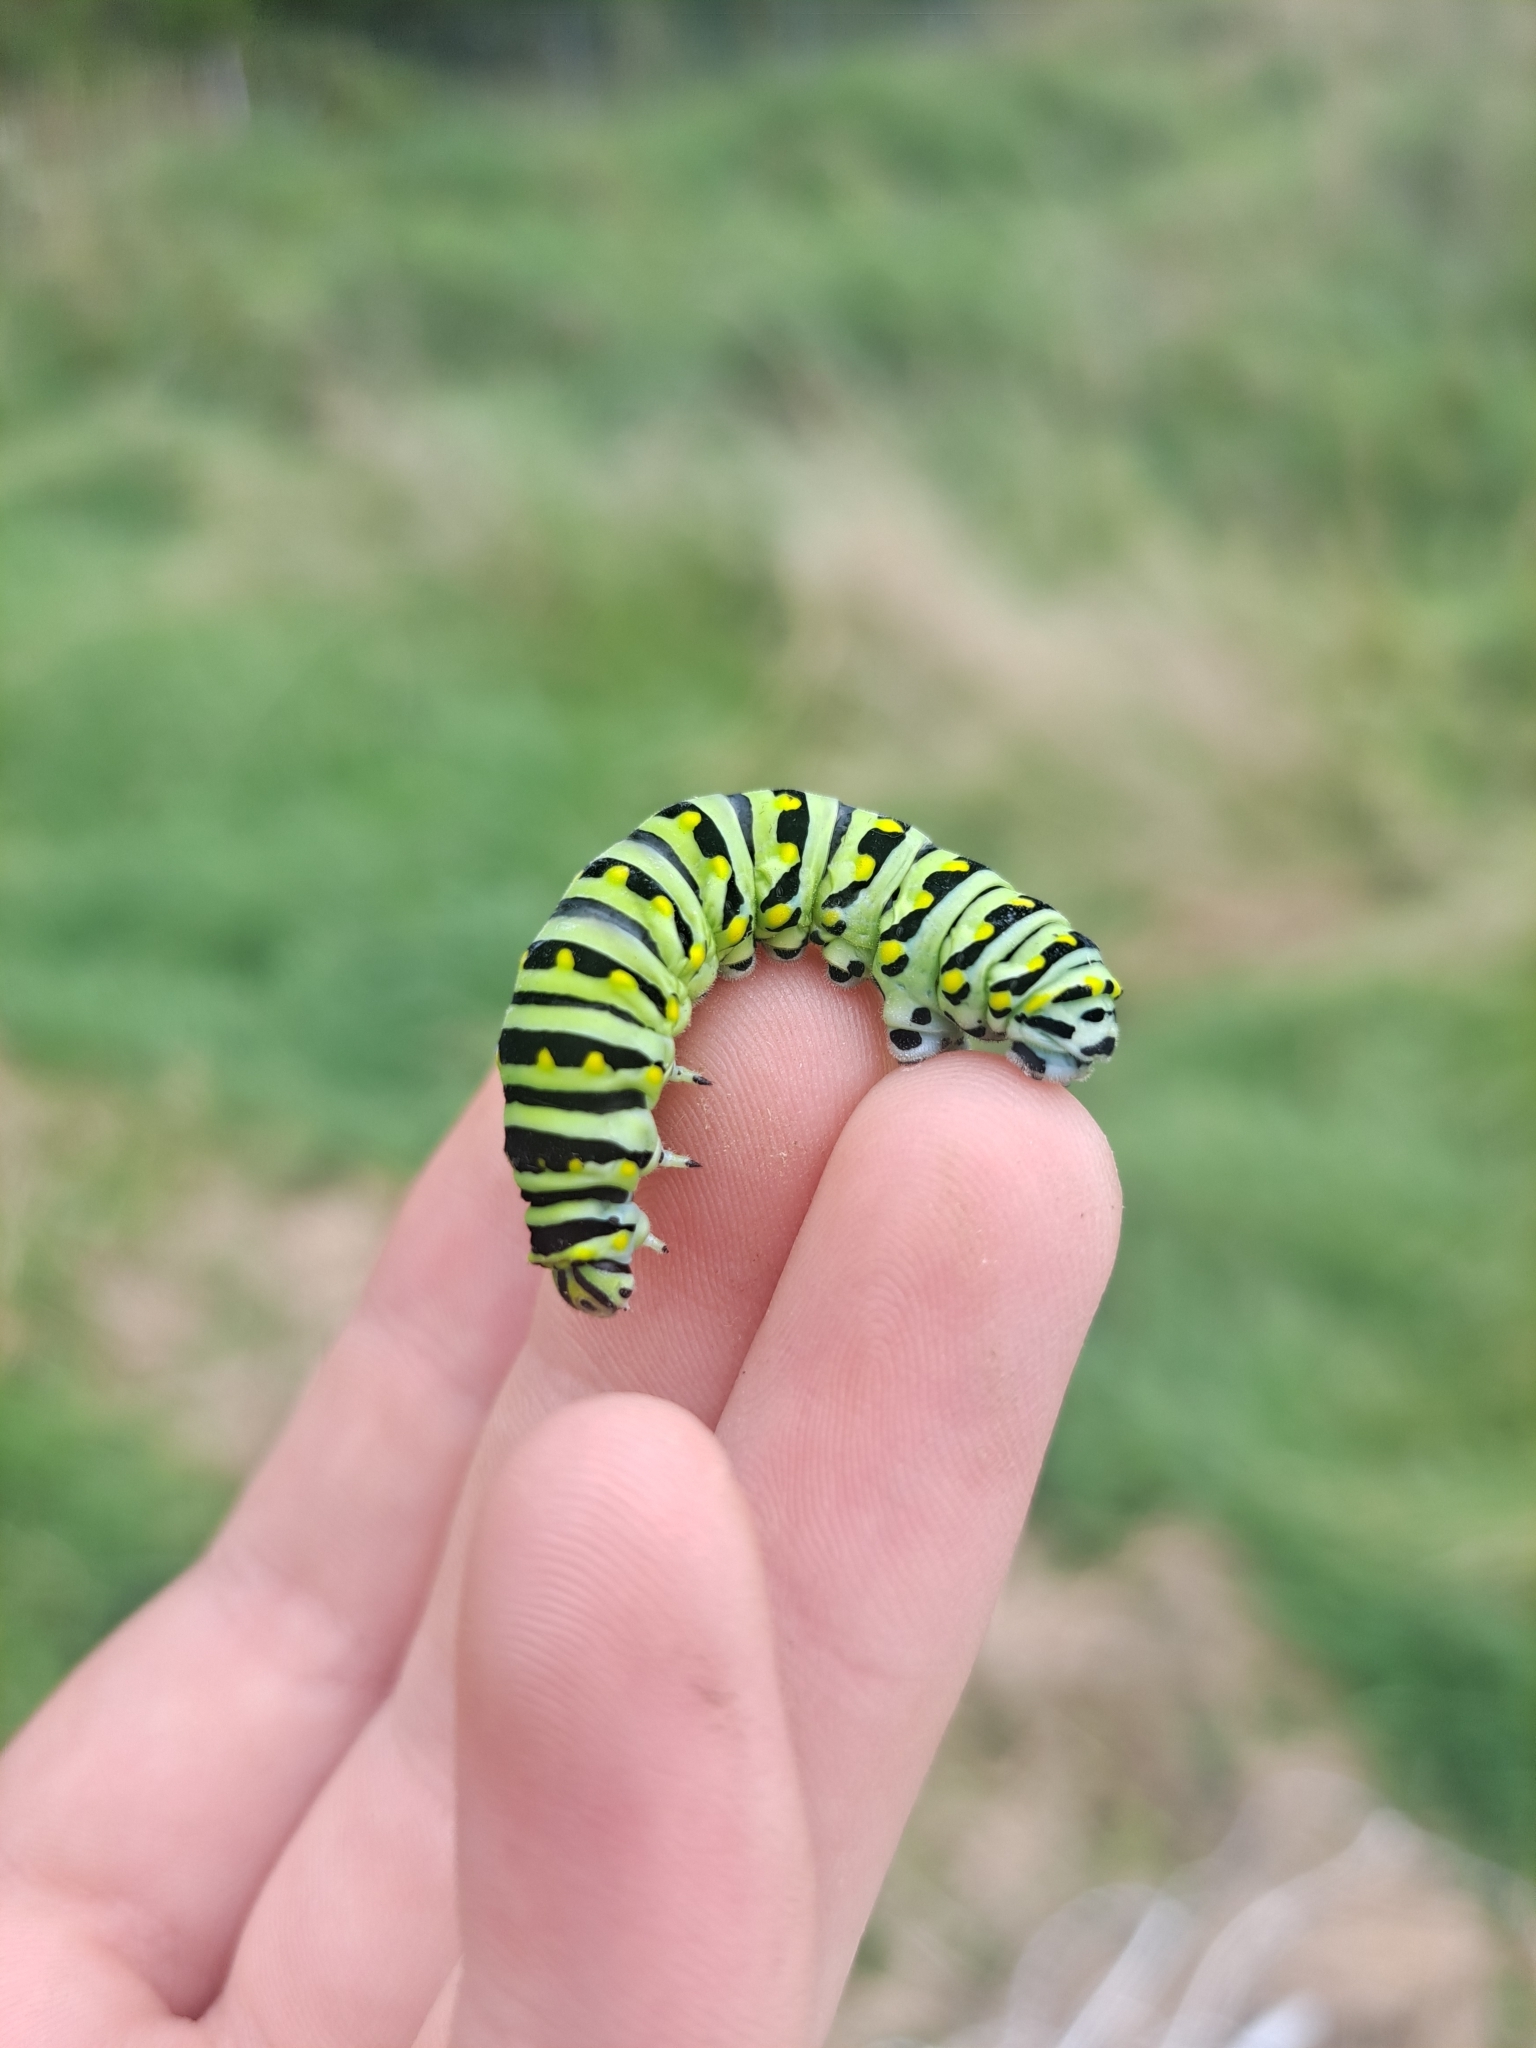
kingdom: Animalia
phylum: Arthropoda
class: Insecta
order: Lepidoptera
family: Papilionidae
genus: Papilio
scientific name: Papilio polyxenes
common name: Black swallowtail
